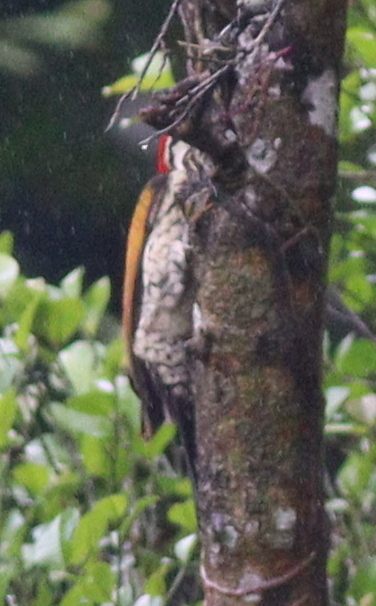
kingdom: Animalia
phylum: Chordata
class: Aves
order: Piciformes
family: Picidae
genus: Dinopium
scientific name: Dinopium javanense
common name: Common flameback
